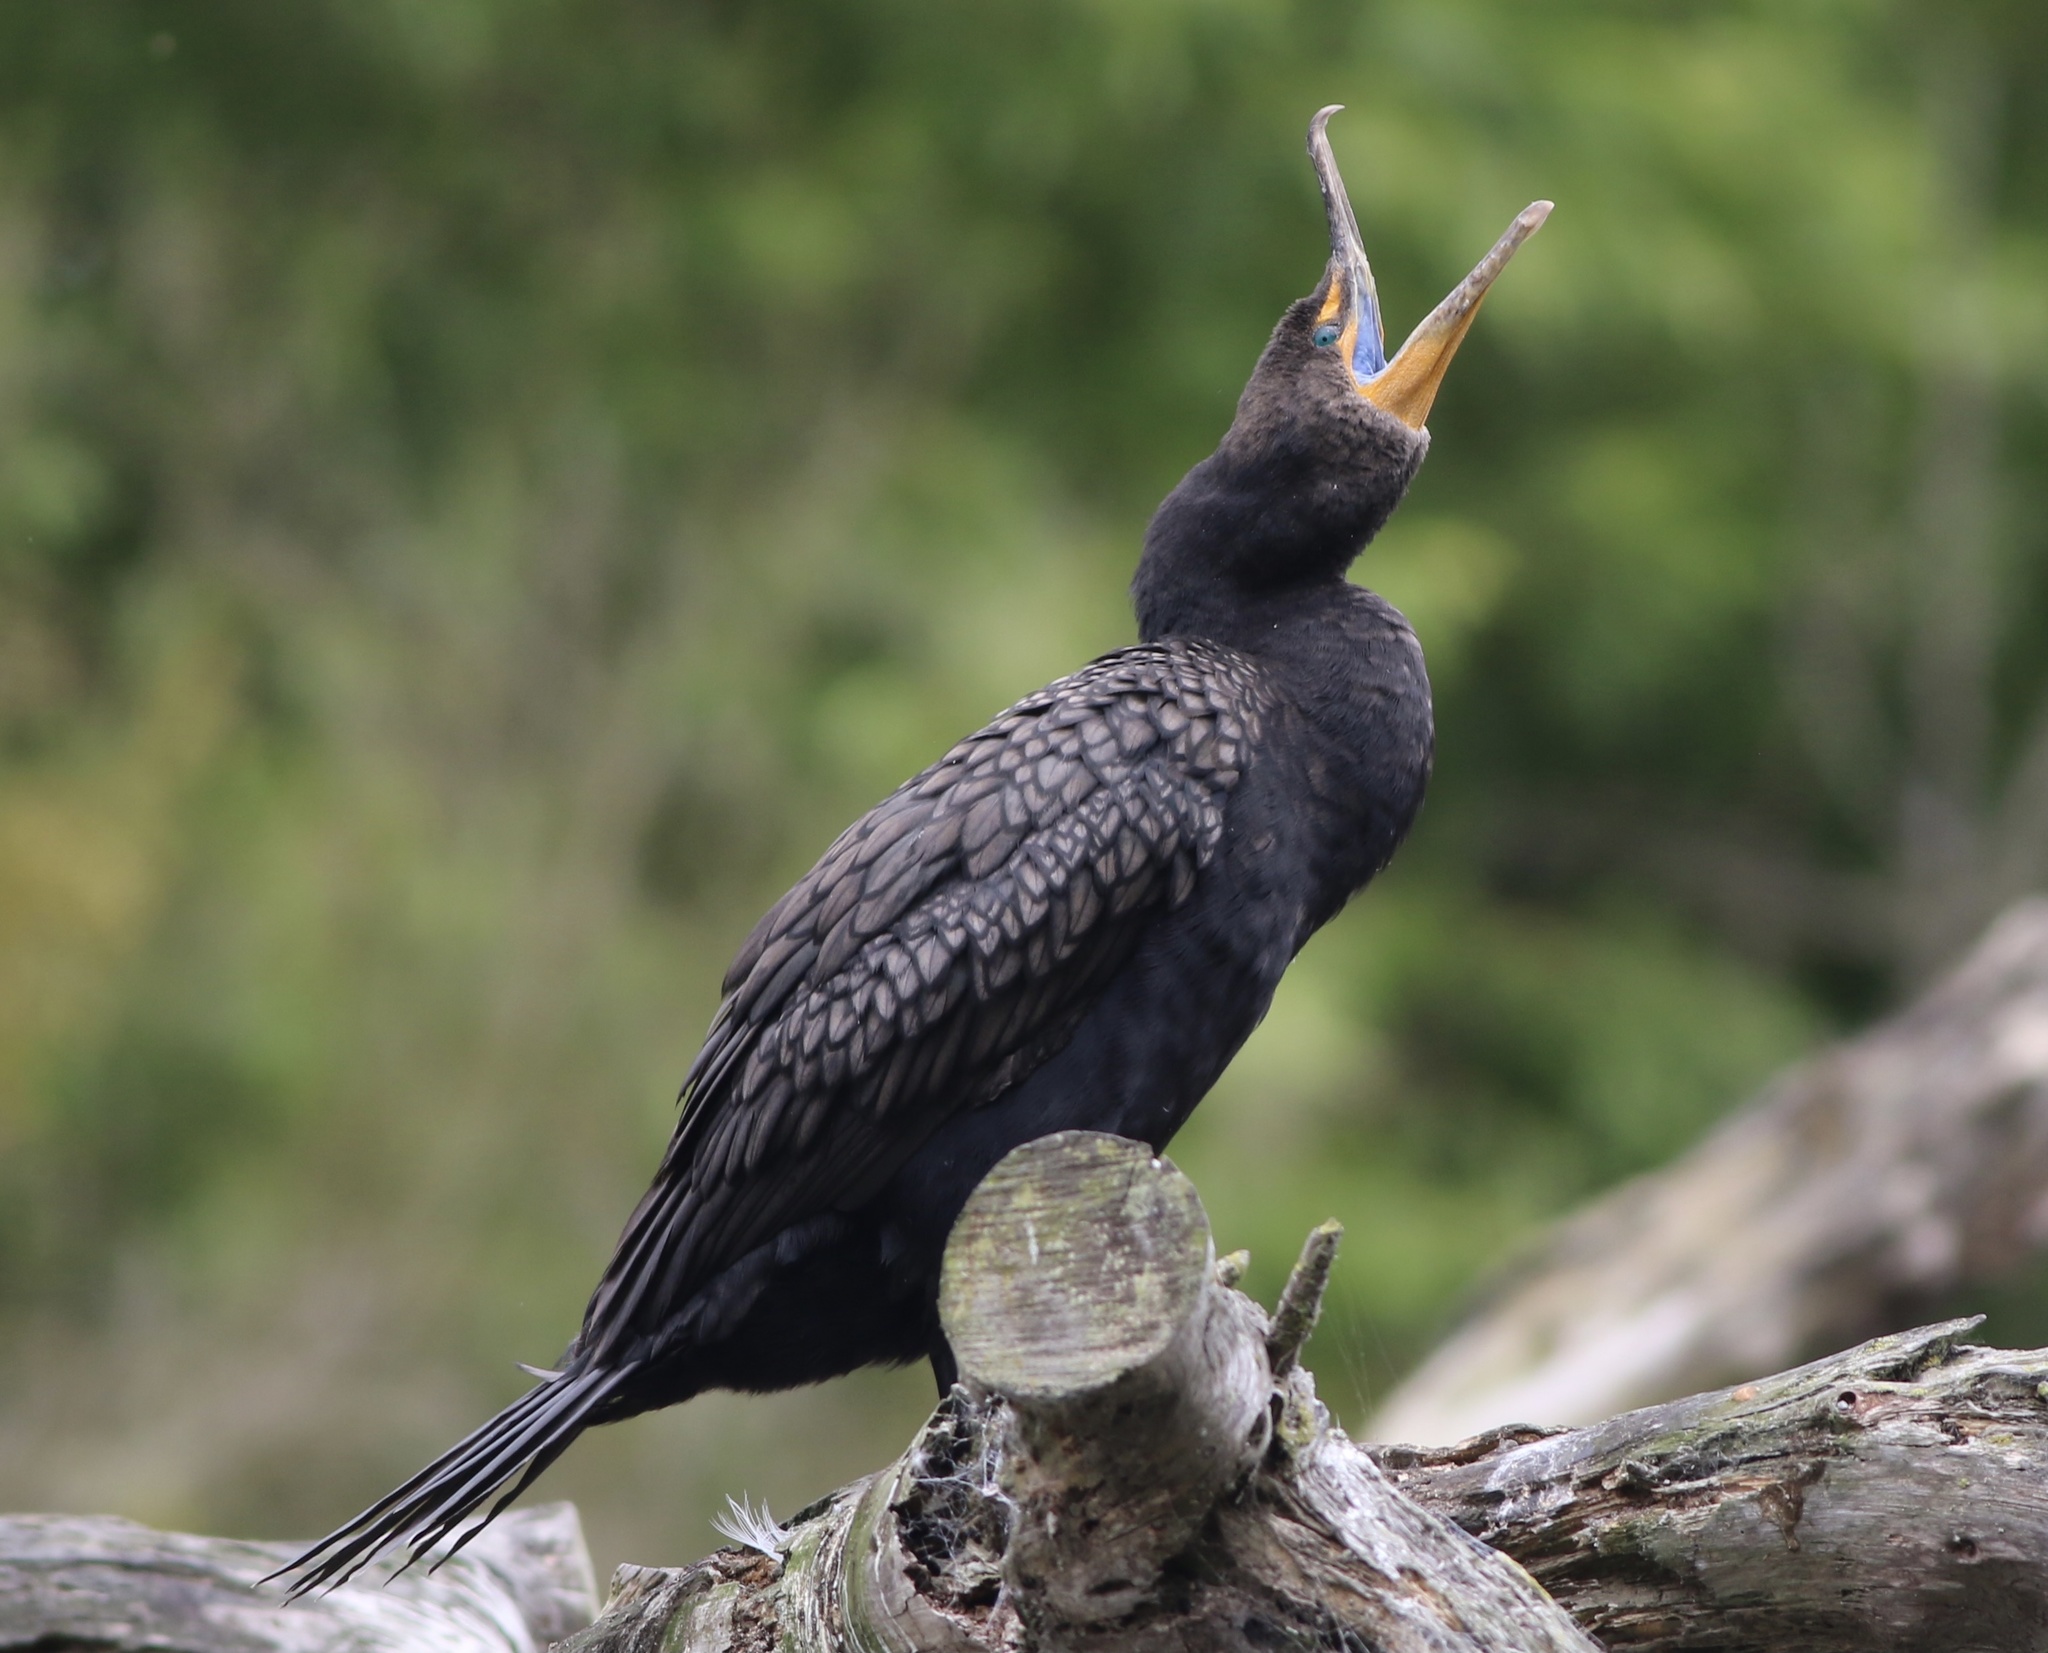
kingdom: Animalia
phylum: Chordata
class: Aves
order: Suliformes
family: Phalacrocoracidae
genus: Phalacrocorax
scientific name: Phalacrocorax auritus
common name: Double-crested cormorant
